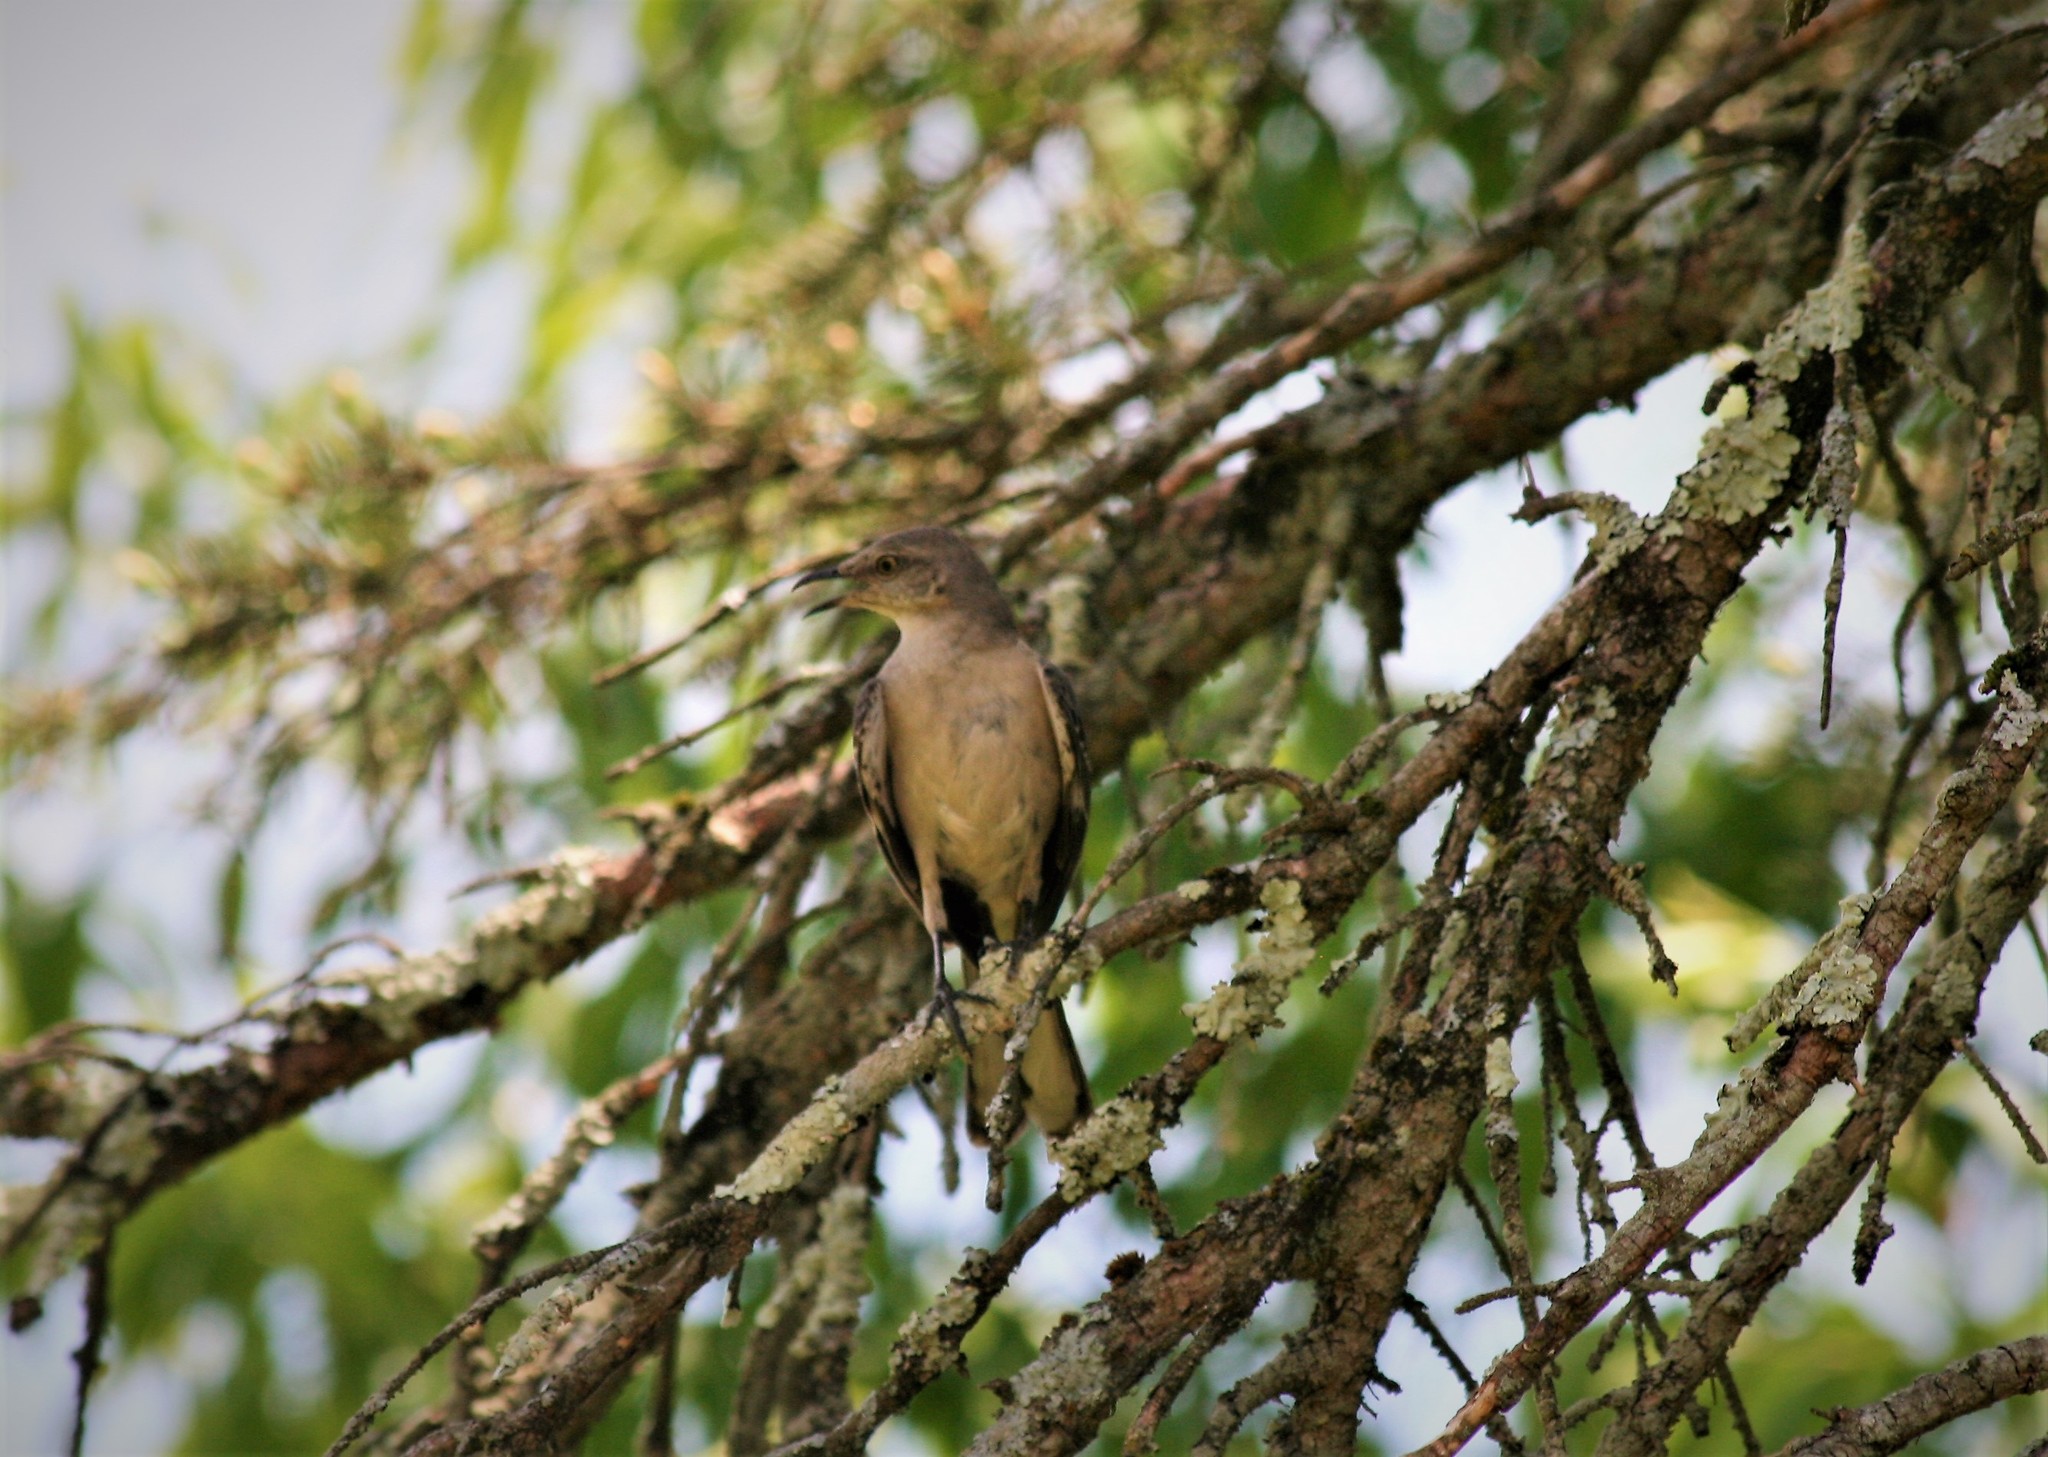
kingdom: Animalia
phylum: Chordata
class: Aves
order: Passeriformes
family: Mimidae
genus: Mimus
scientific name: Mimus polyglottos
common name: Northern mockingbird
